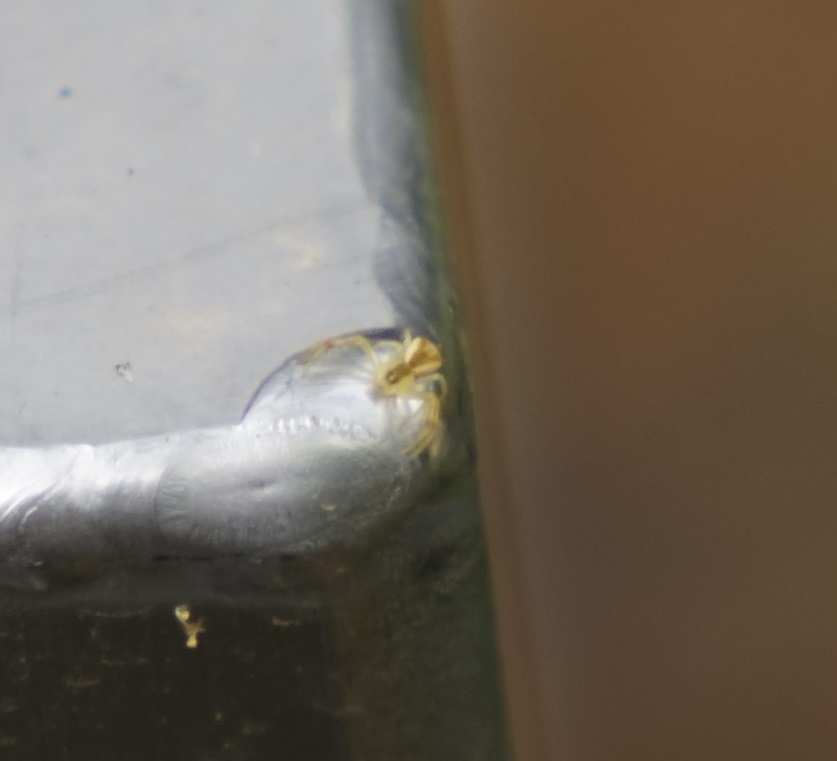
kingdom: Animalia
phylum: Arthropoda
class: Arachnida
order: Araneae
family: Thomisidae
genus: Sidymella
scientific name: Sidymella
